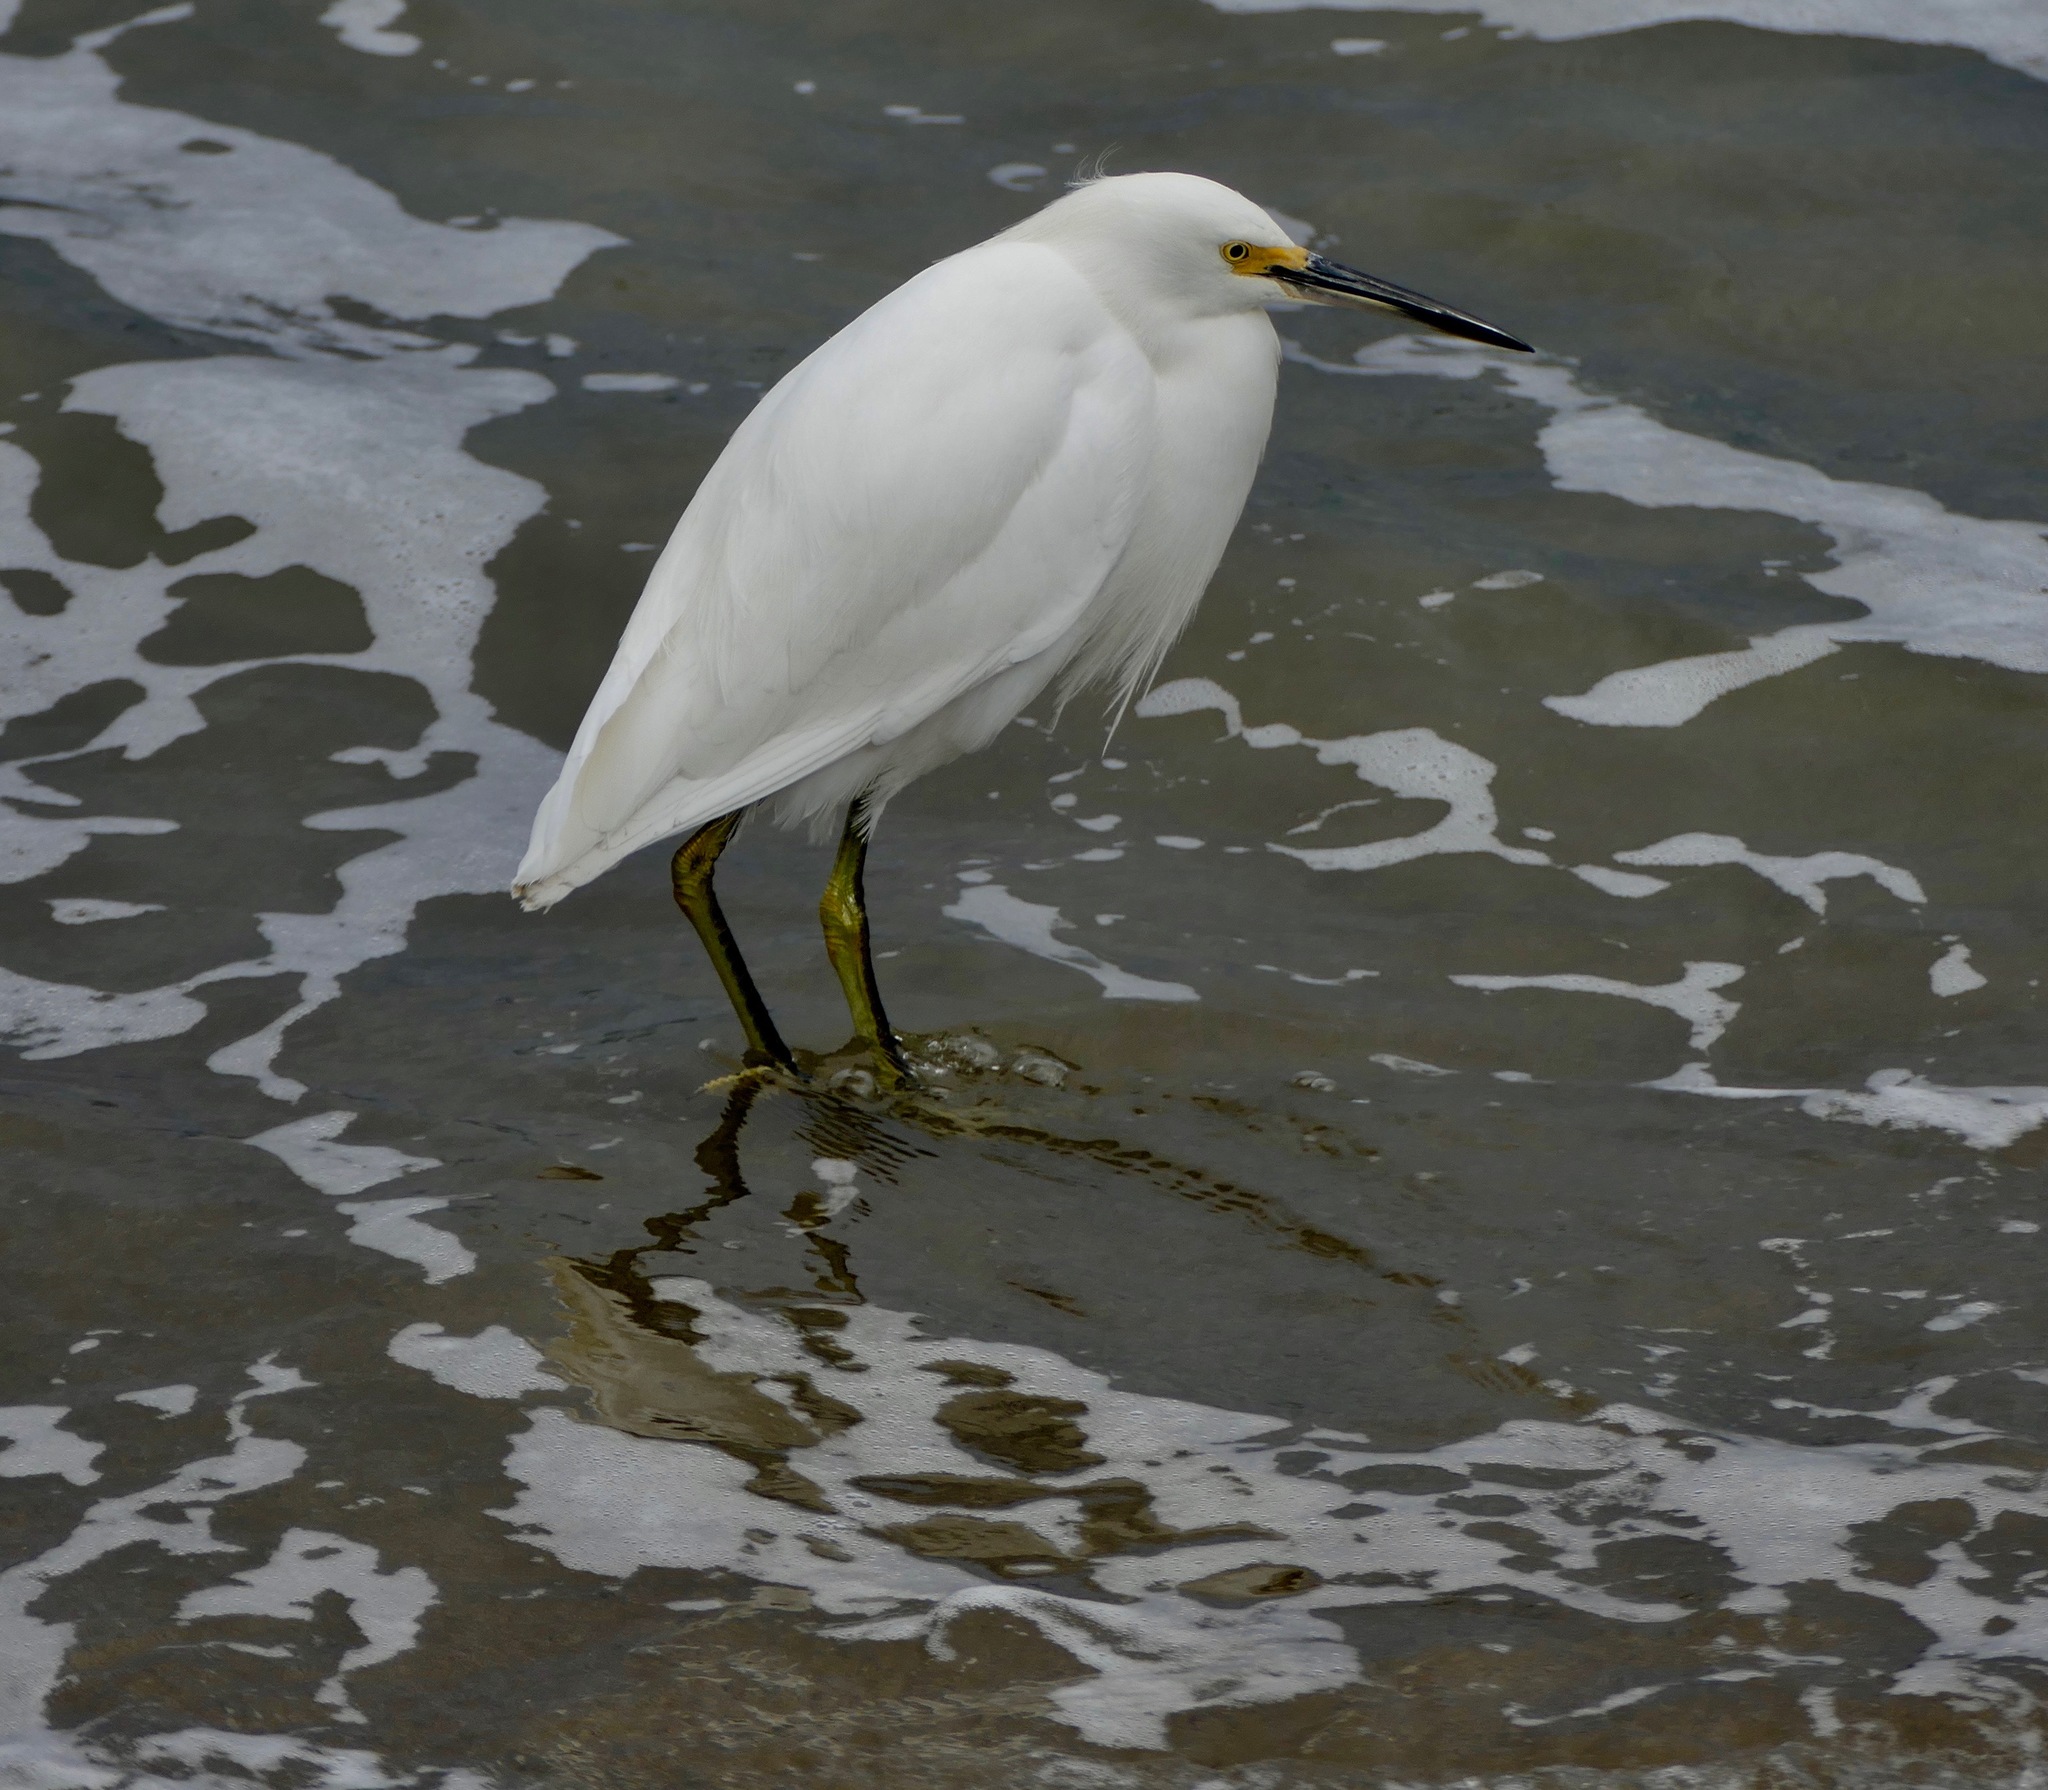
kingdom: Animalia
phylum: Chordata
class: Aves
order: Pelecaniformes
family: Ardeidae
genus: Egretta
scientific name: Egretta thula
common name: Snowy egret
